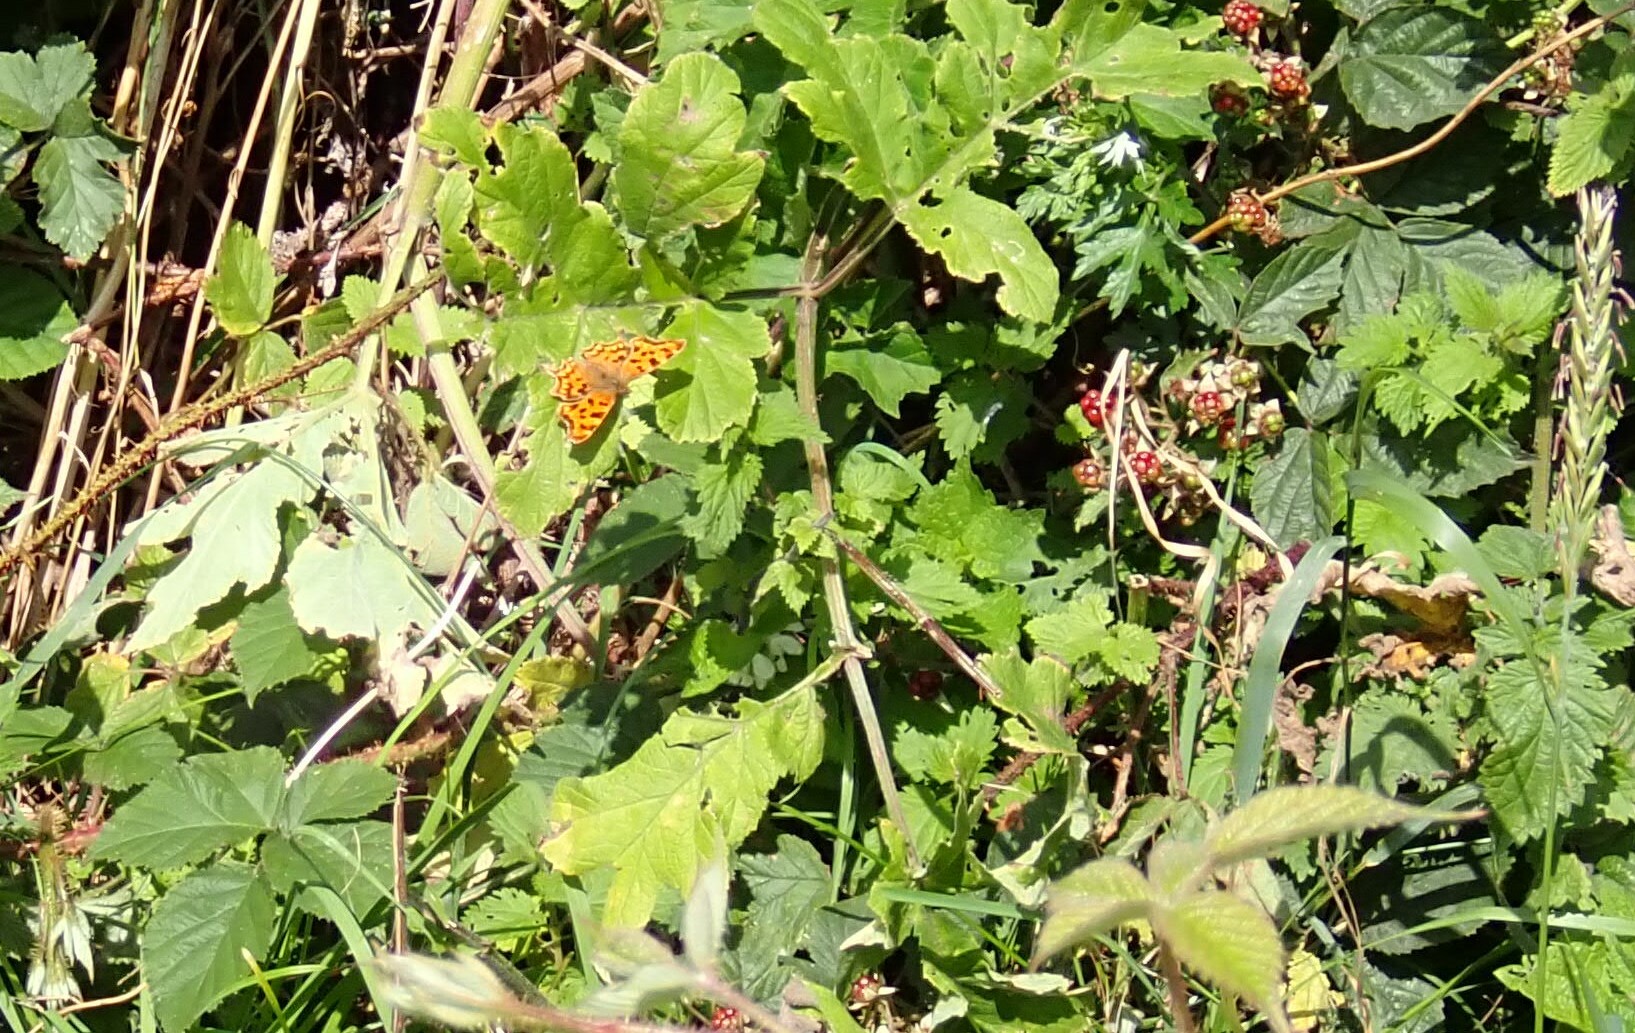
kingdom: Animalia
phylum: Arthropoda
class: Insecta
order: Lepidoptera
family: Nymphalidae
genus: Polygonia
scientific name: Polygonia c-album
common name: Comma
